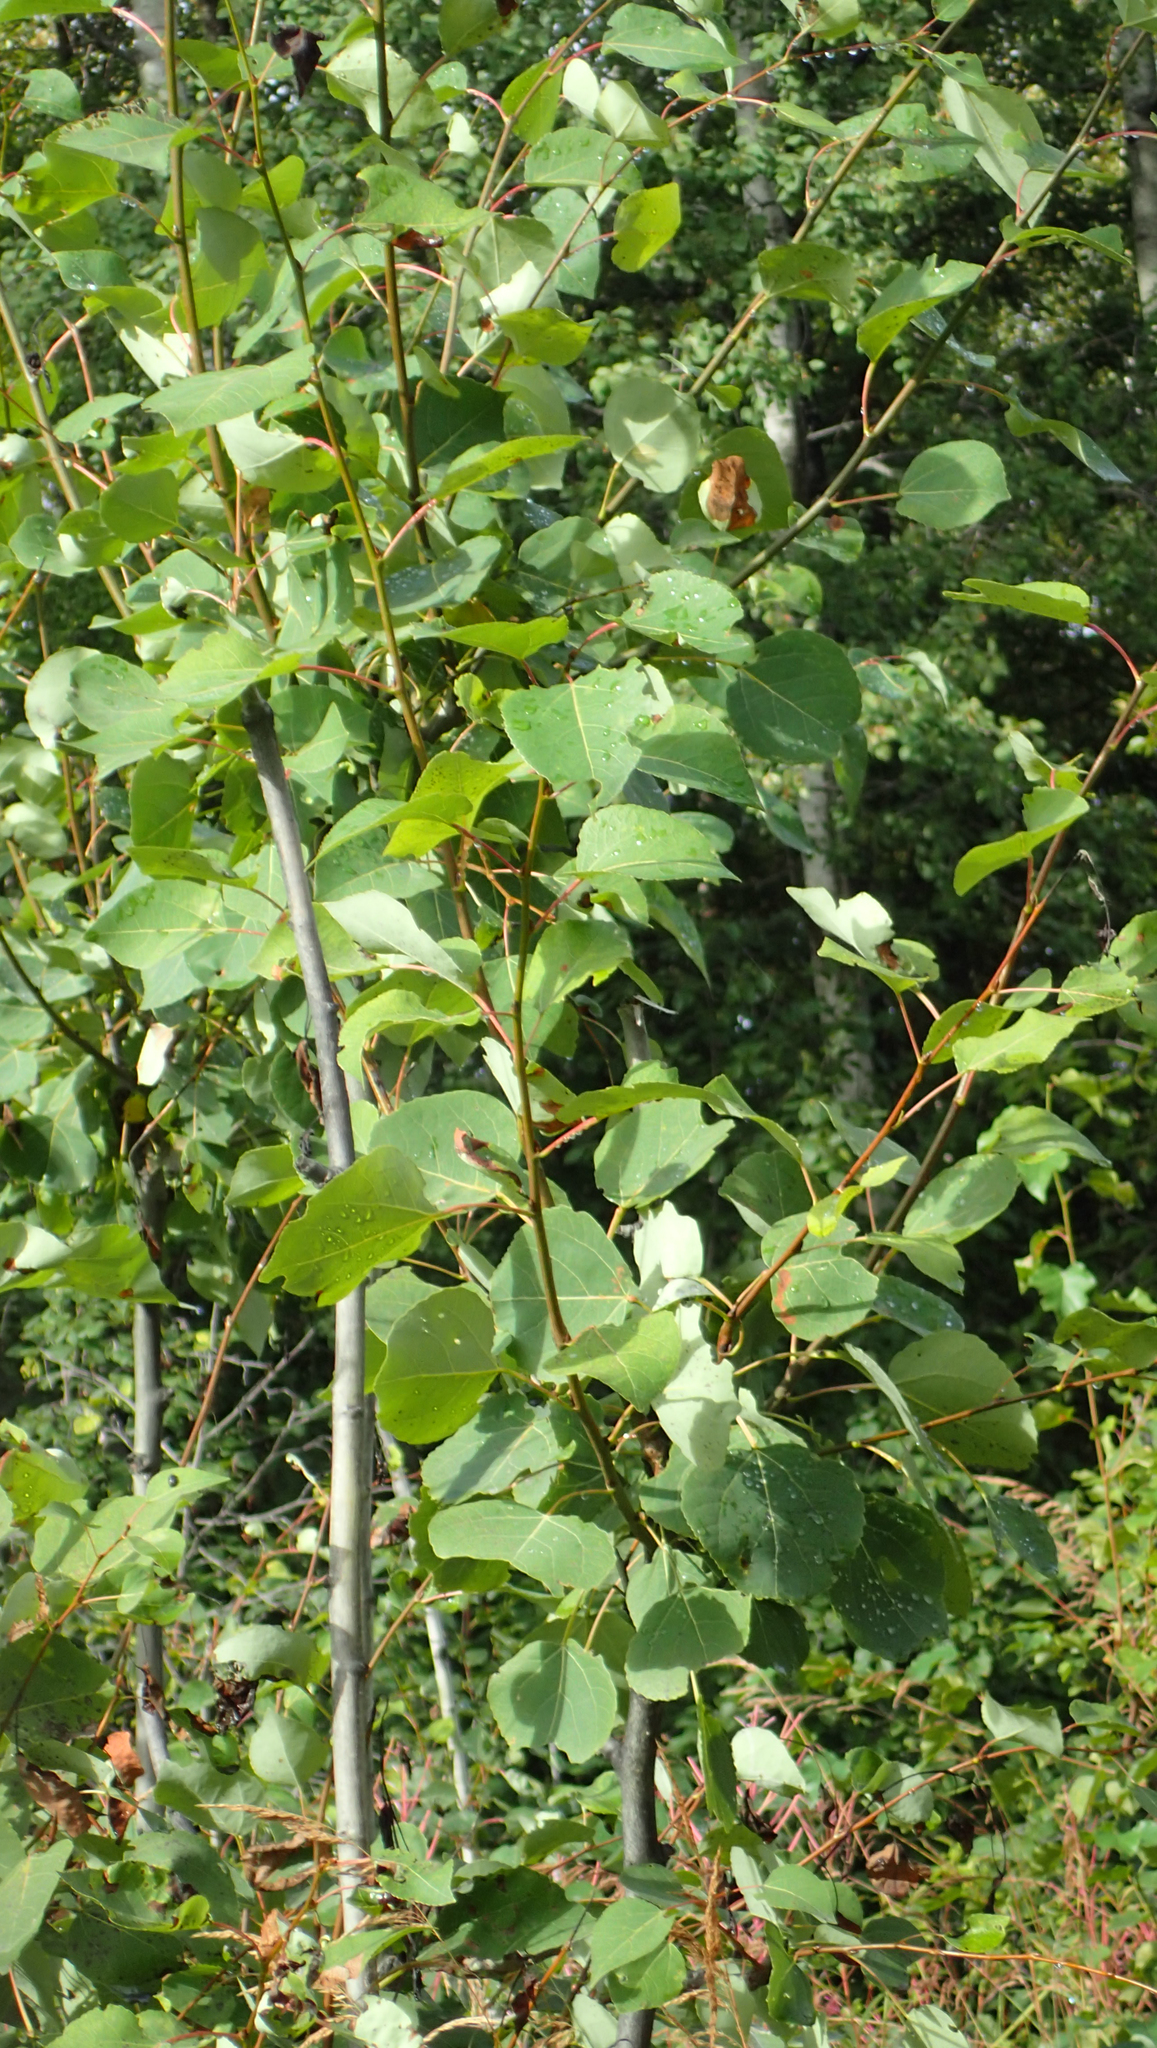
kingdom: Plantae
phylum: Tracheophyta
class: Magnoliopsida
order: Malpighiales
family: Salicaceae
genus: Populus
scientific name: Populus tremuloides
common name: Quaking aspen
